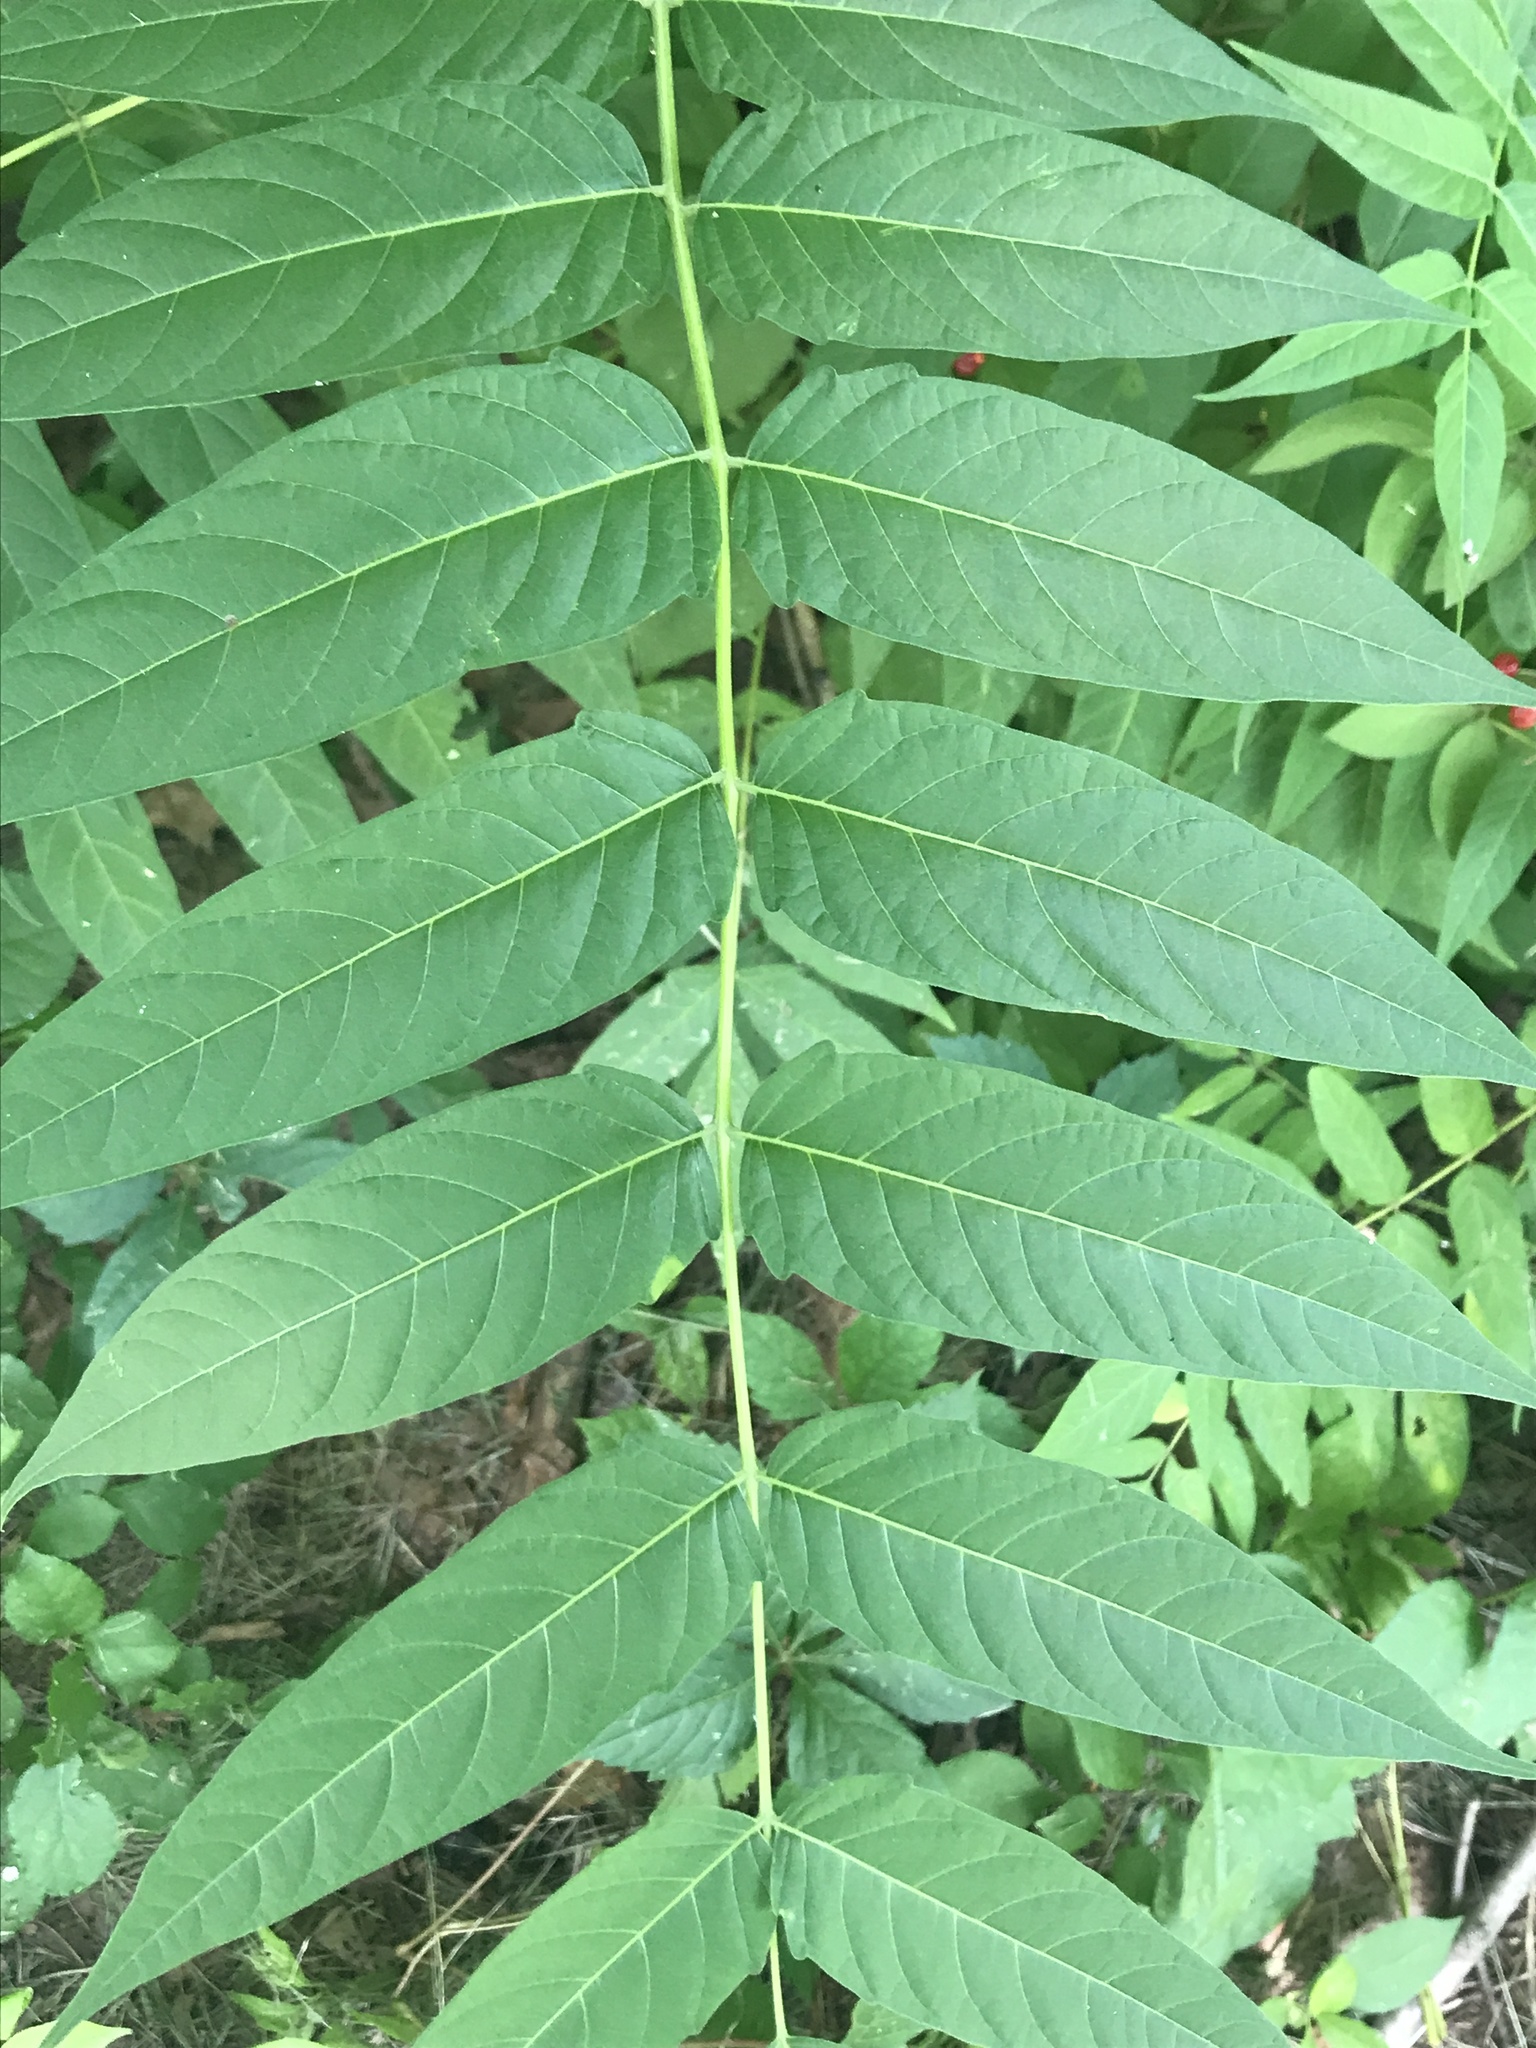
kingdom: Plantae
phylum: Tracheophyta
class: Magnoliopsida
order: Sapindales
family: Simaroubaceae
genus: Ailanthus
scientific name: Ailanthus altissima
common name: Tree-of-heaven
